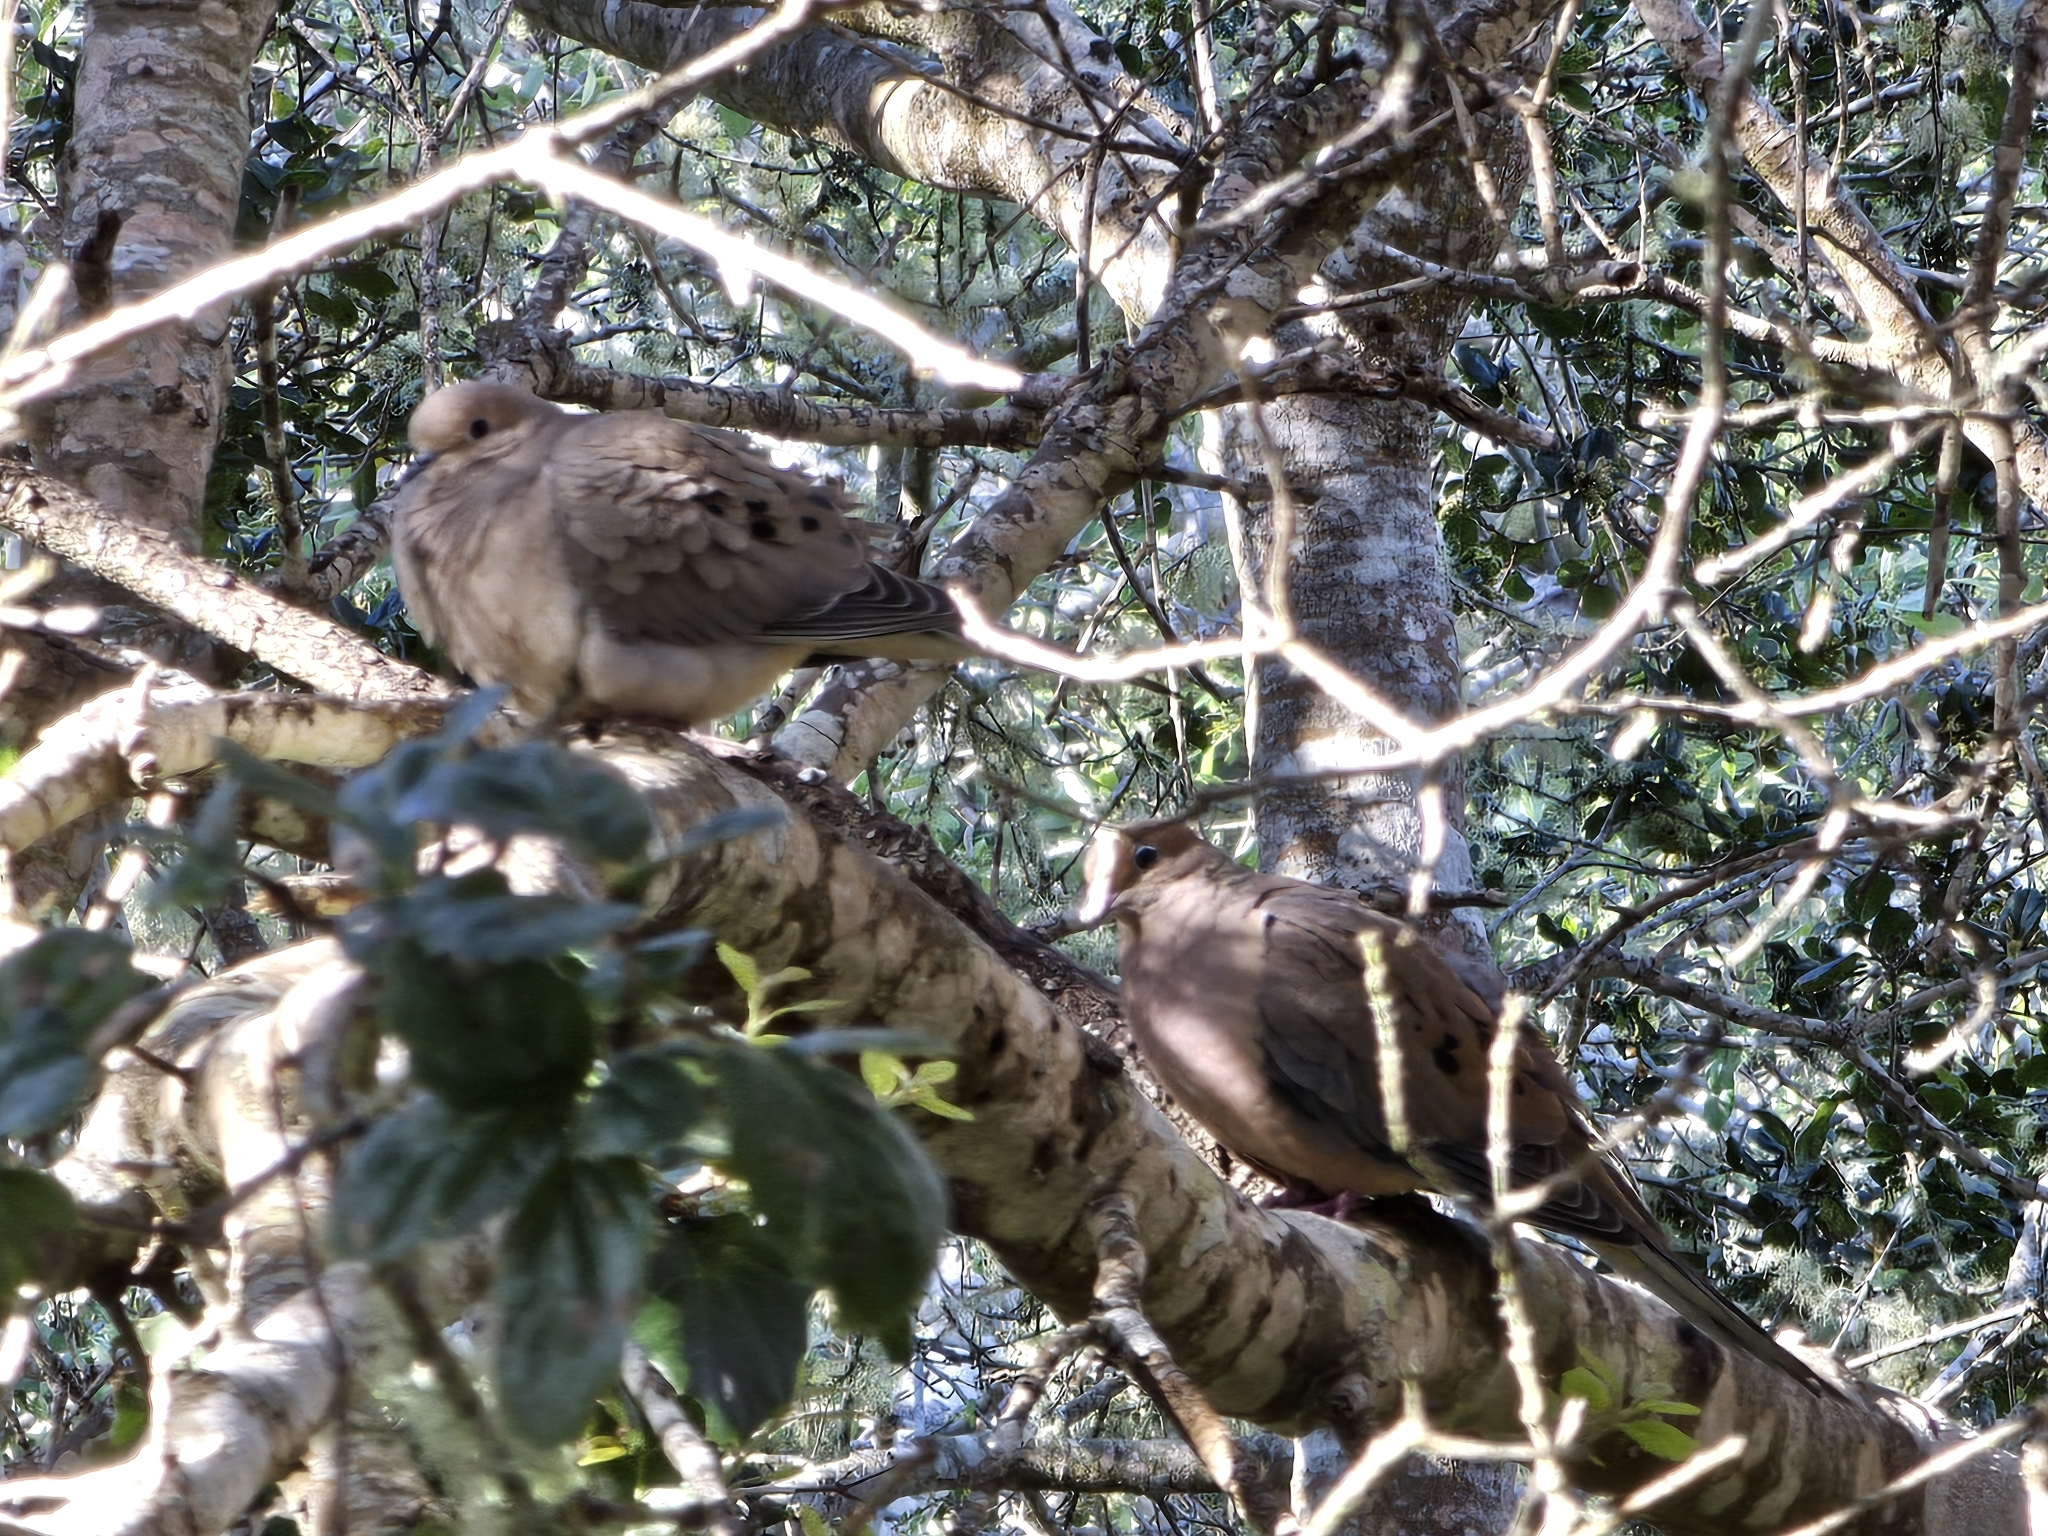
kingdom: Animalia
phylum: Chordata
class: Aves
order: Columbiformes
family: Columbidae
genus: Zenaida
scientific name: Zenaida macroura
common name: Mourning dove
